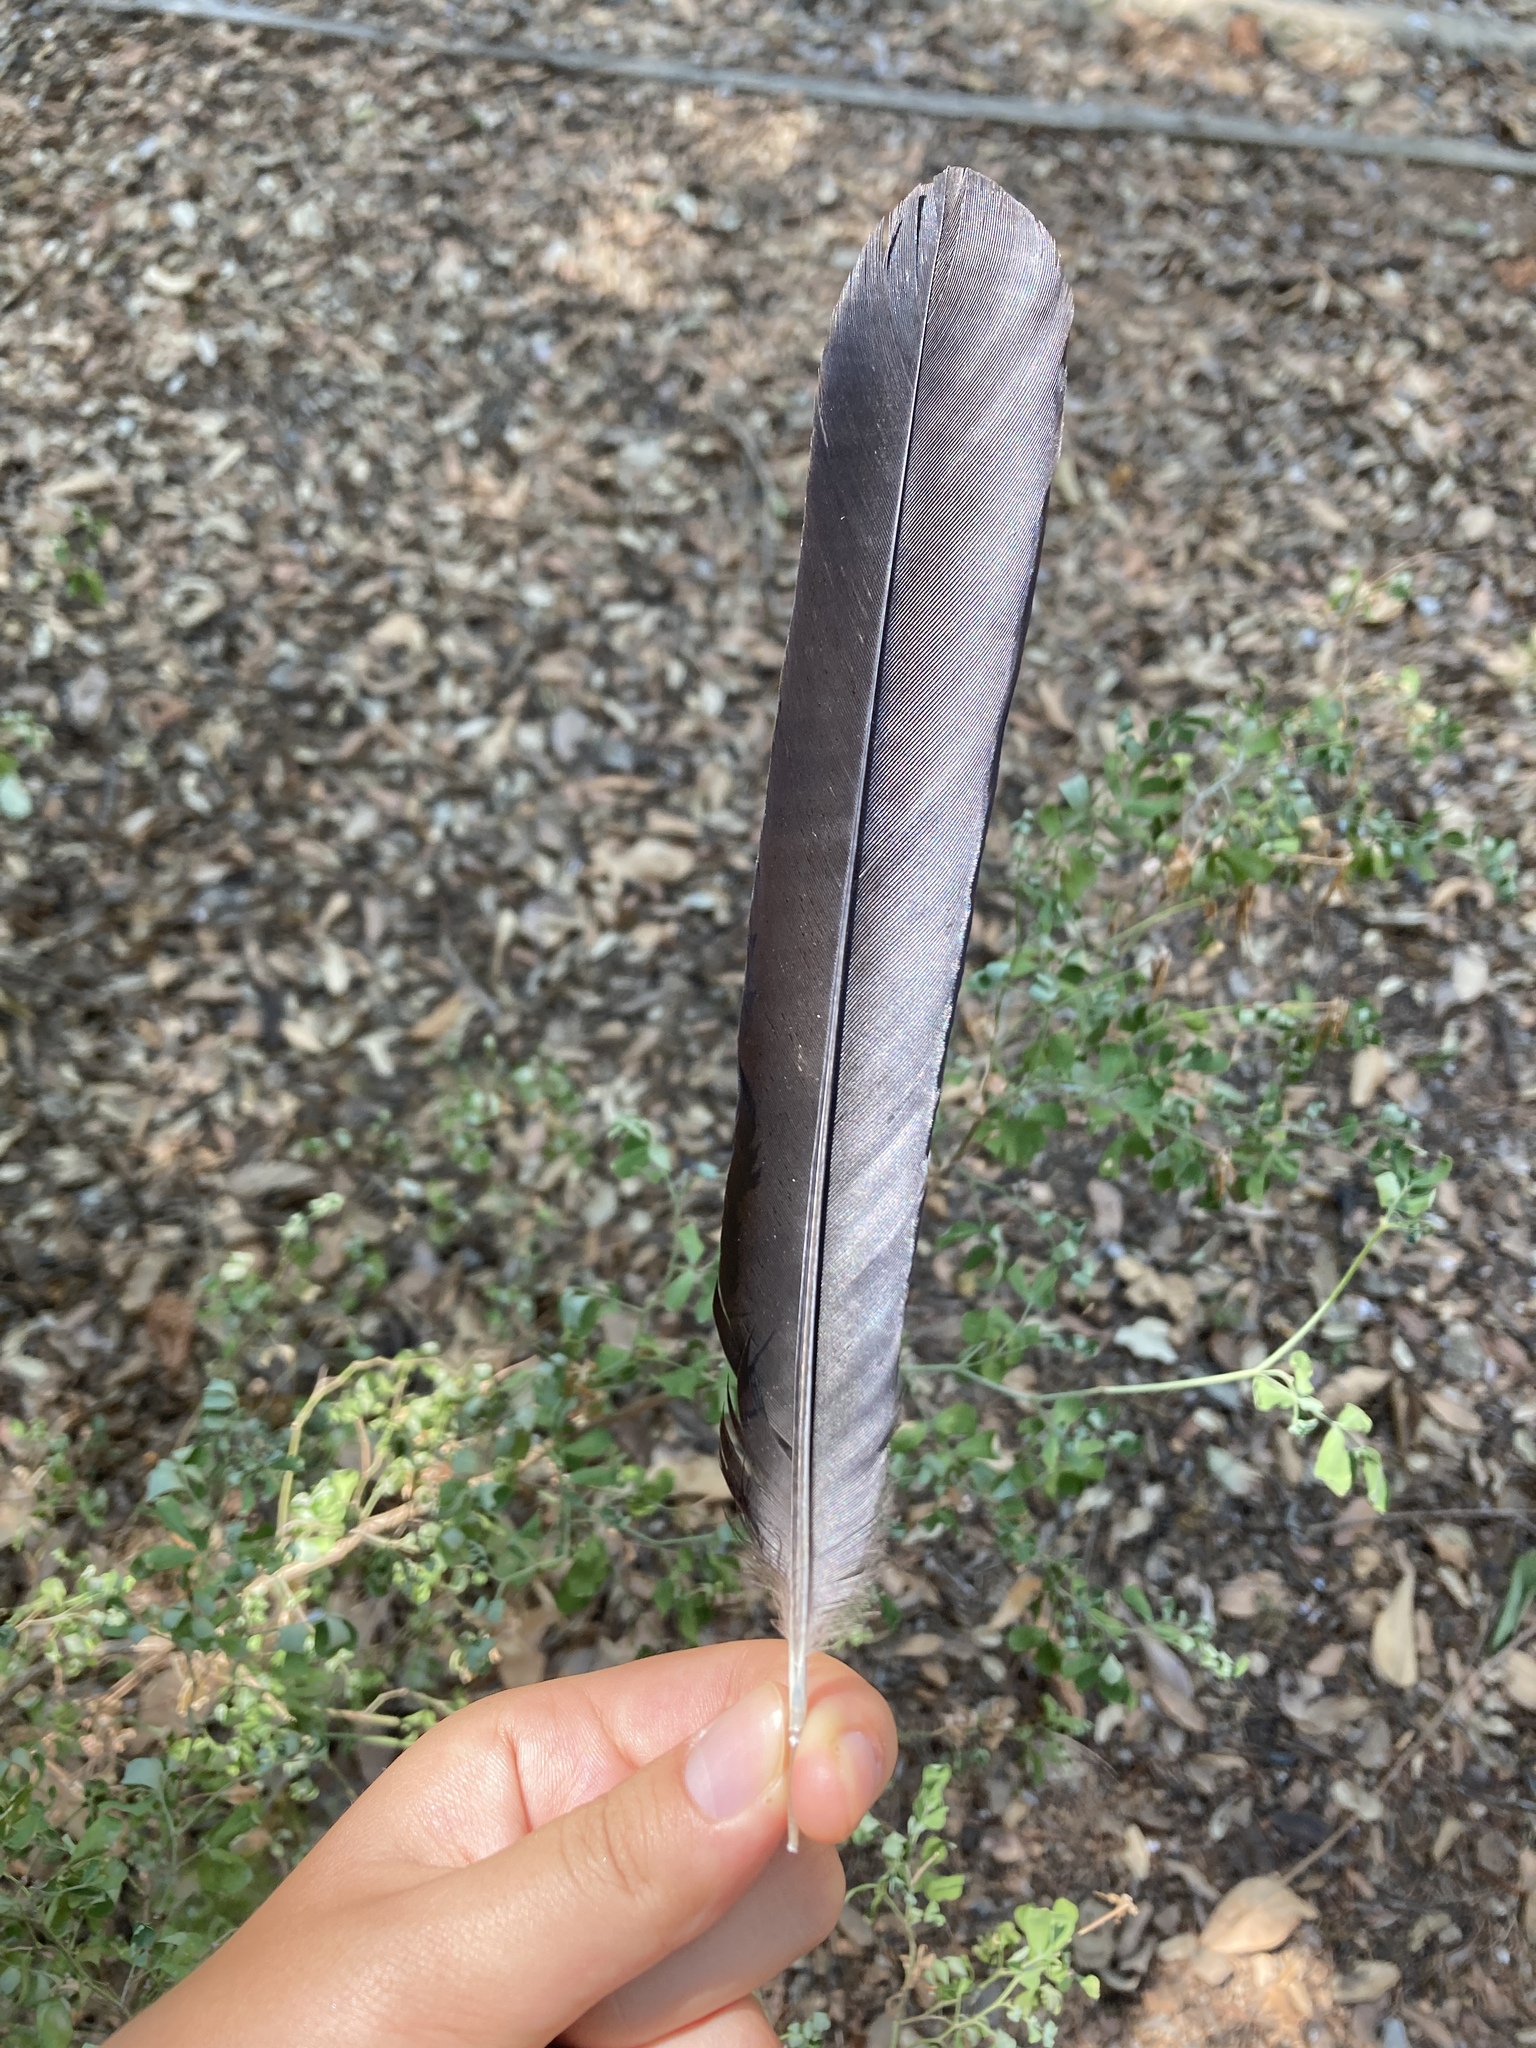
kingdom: Animalia
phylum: Chordata
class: Aves
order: Passeriformes
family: Corvidae
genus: Pica
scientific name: Pica pica
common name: Eurasian magpie
